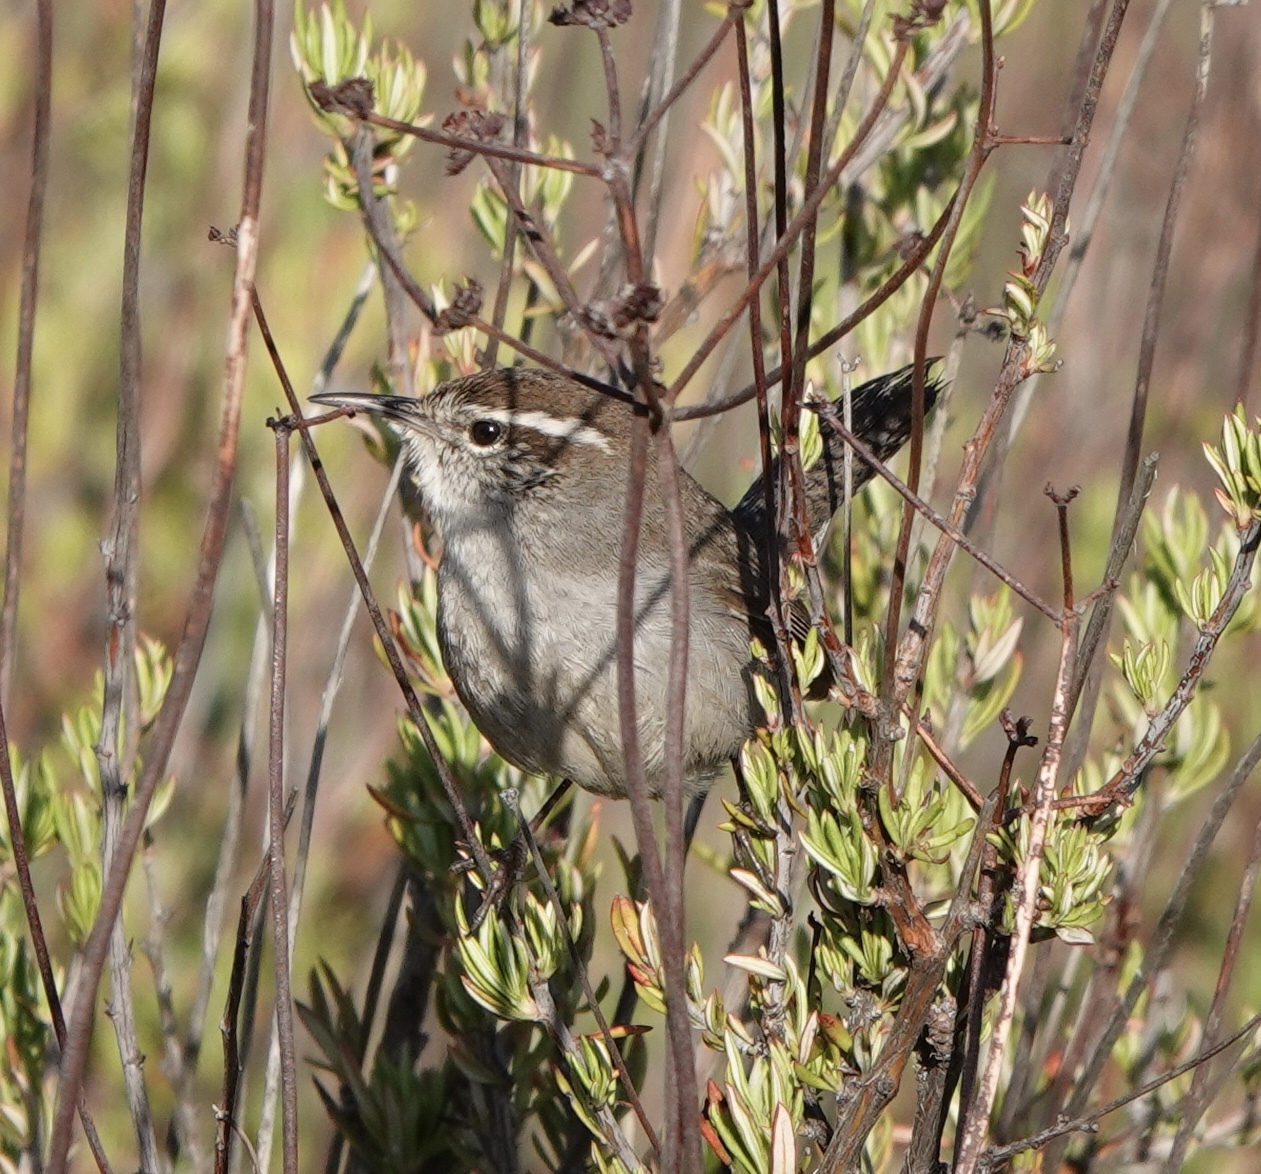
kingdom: Animalia
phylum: Chordata
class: Aves
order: Passeriformes
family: Troglodytidae
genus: Thryomanes
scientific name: Thryomanes bewickii
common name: Bewick's wren
